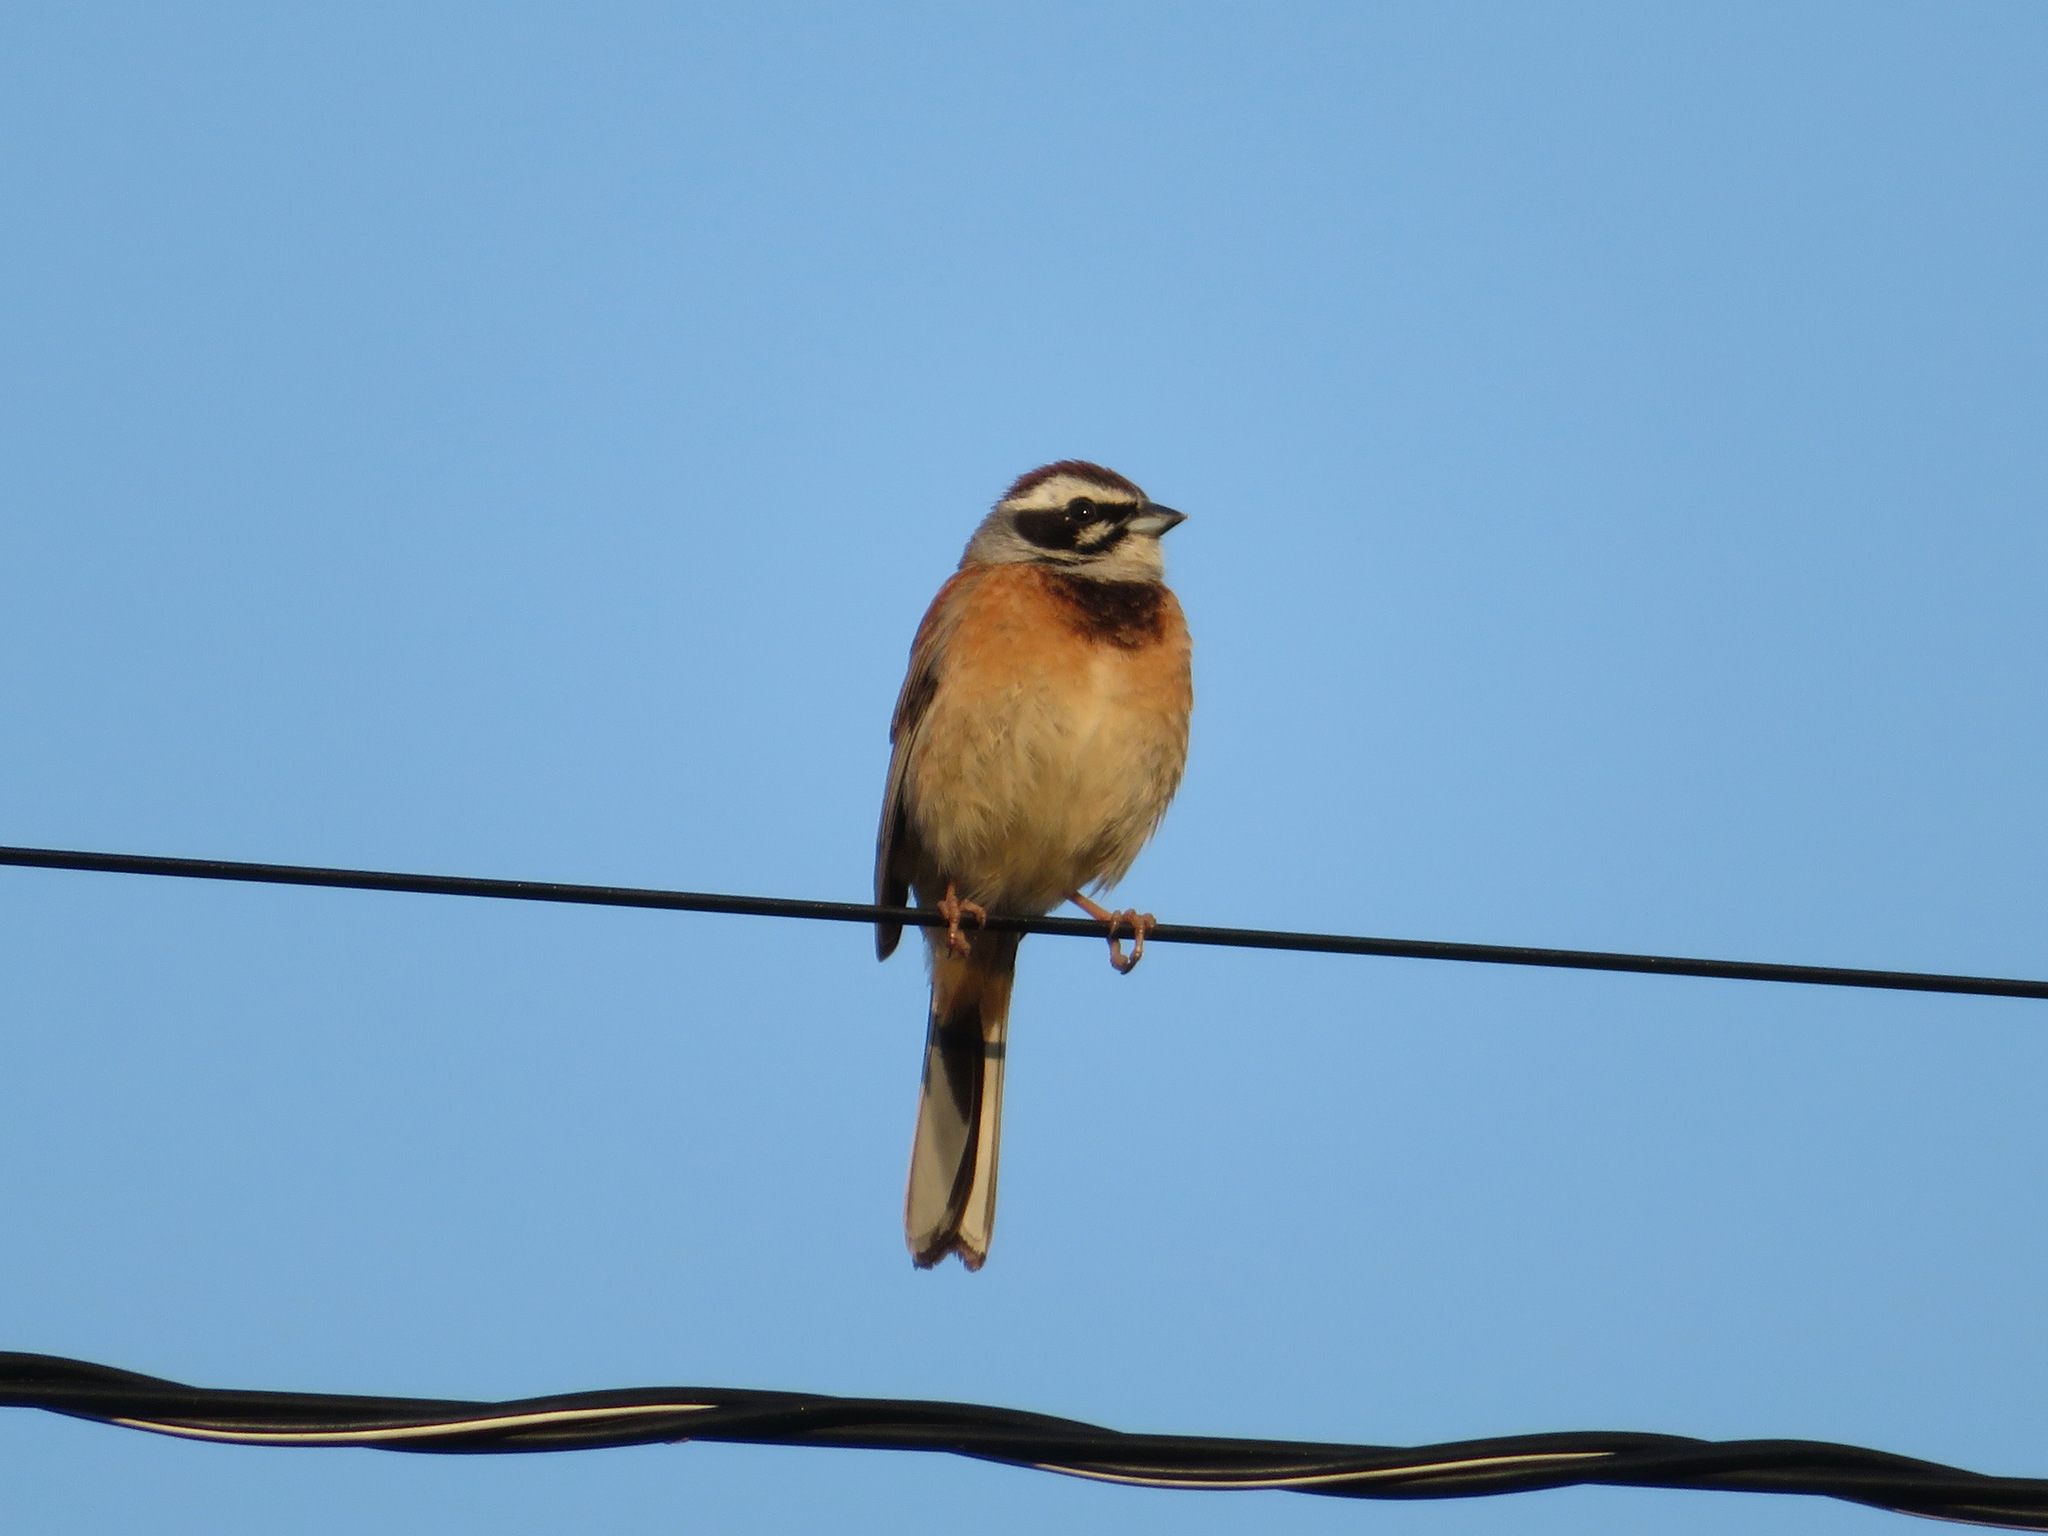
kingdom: Animalia
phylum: Chordata
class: Aves
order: Passeriformes
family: Emberizidae
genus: Emberiza
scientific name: Emberiza cioides
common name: Meadow bunting
